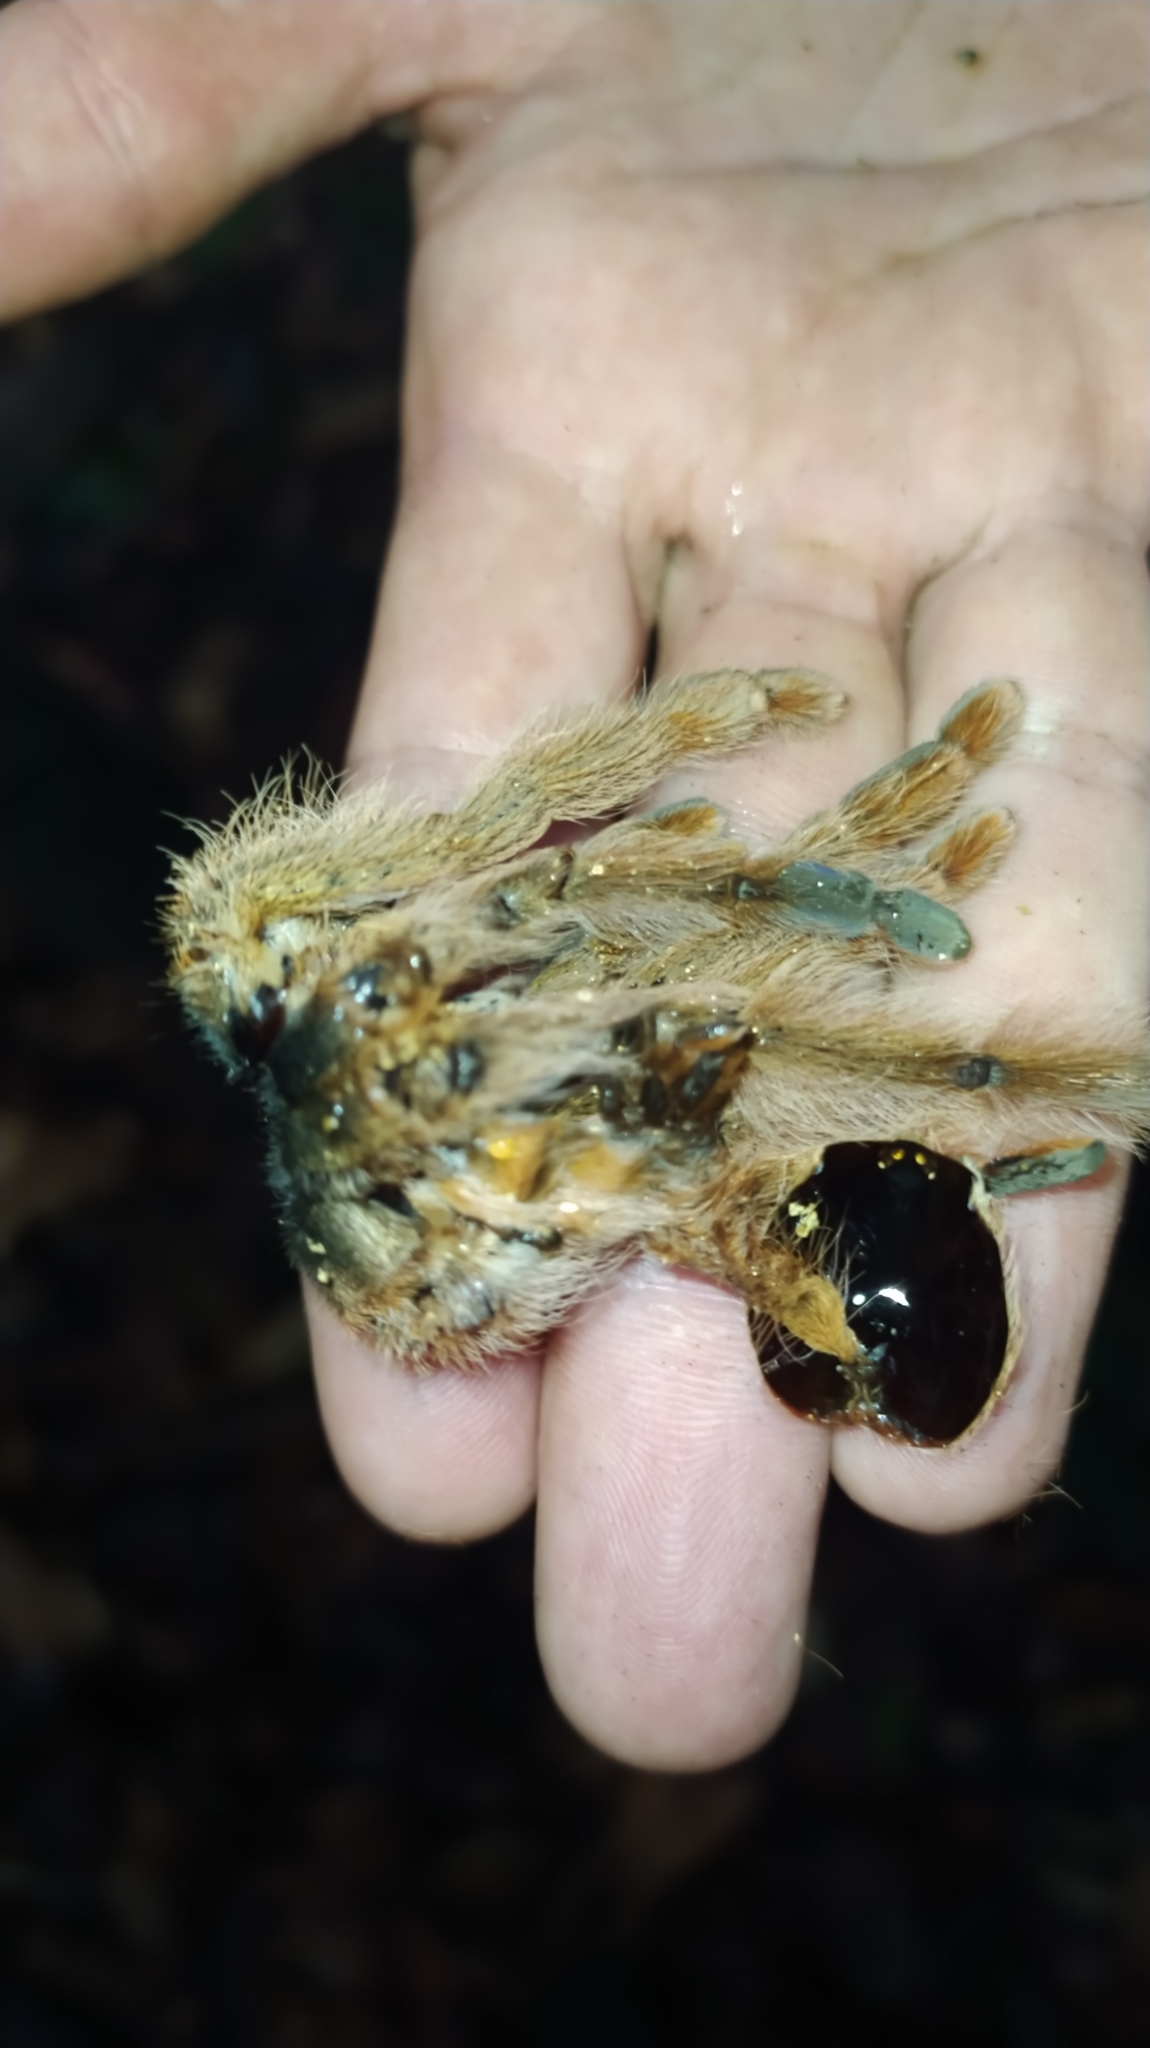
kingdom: Animalia
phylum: Arthropoda
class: Arachnida
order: Araneae
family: Theraphosidae
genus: Amazonius
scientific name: Amazonius germani
